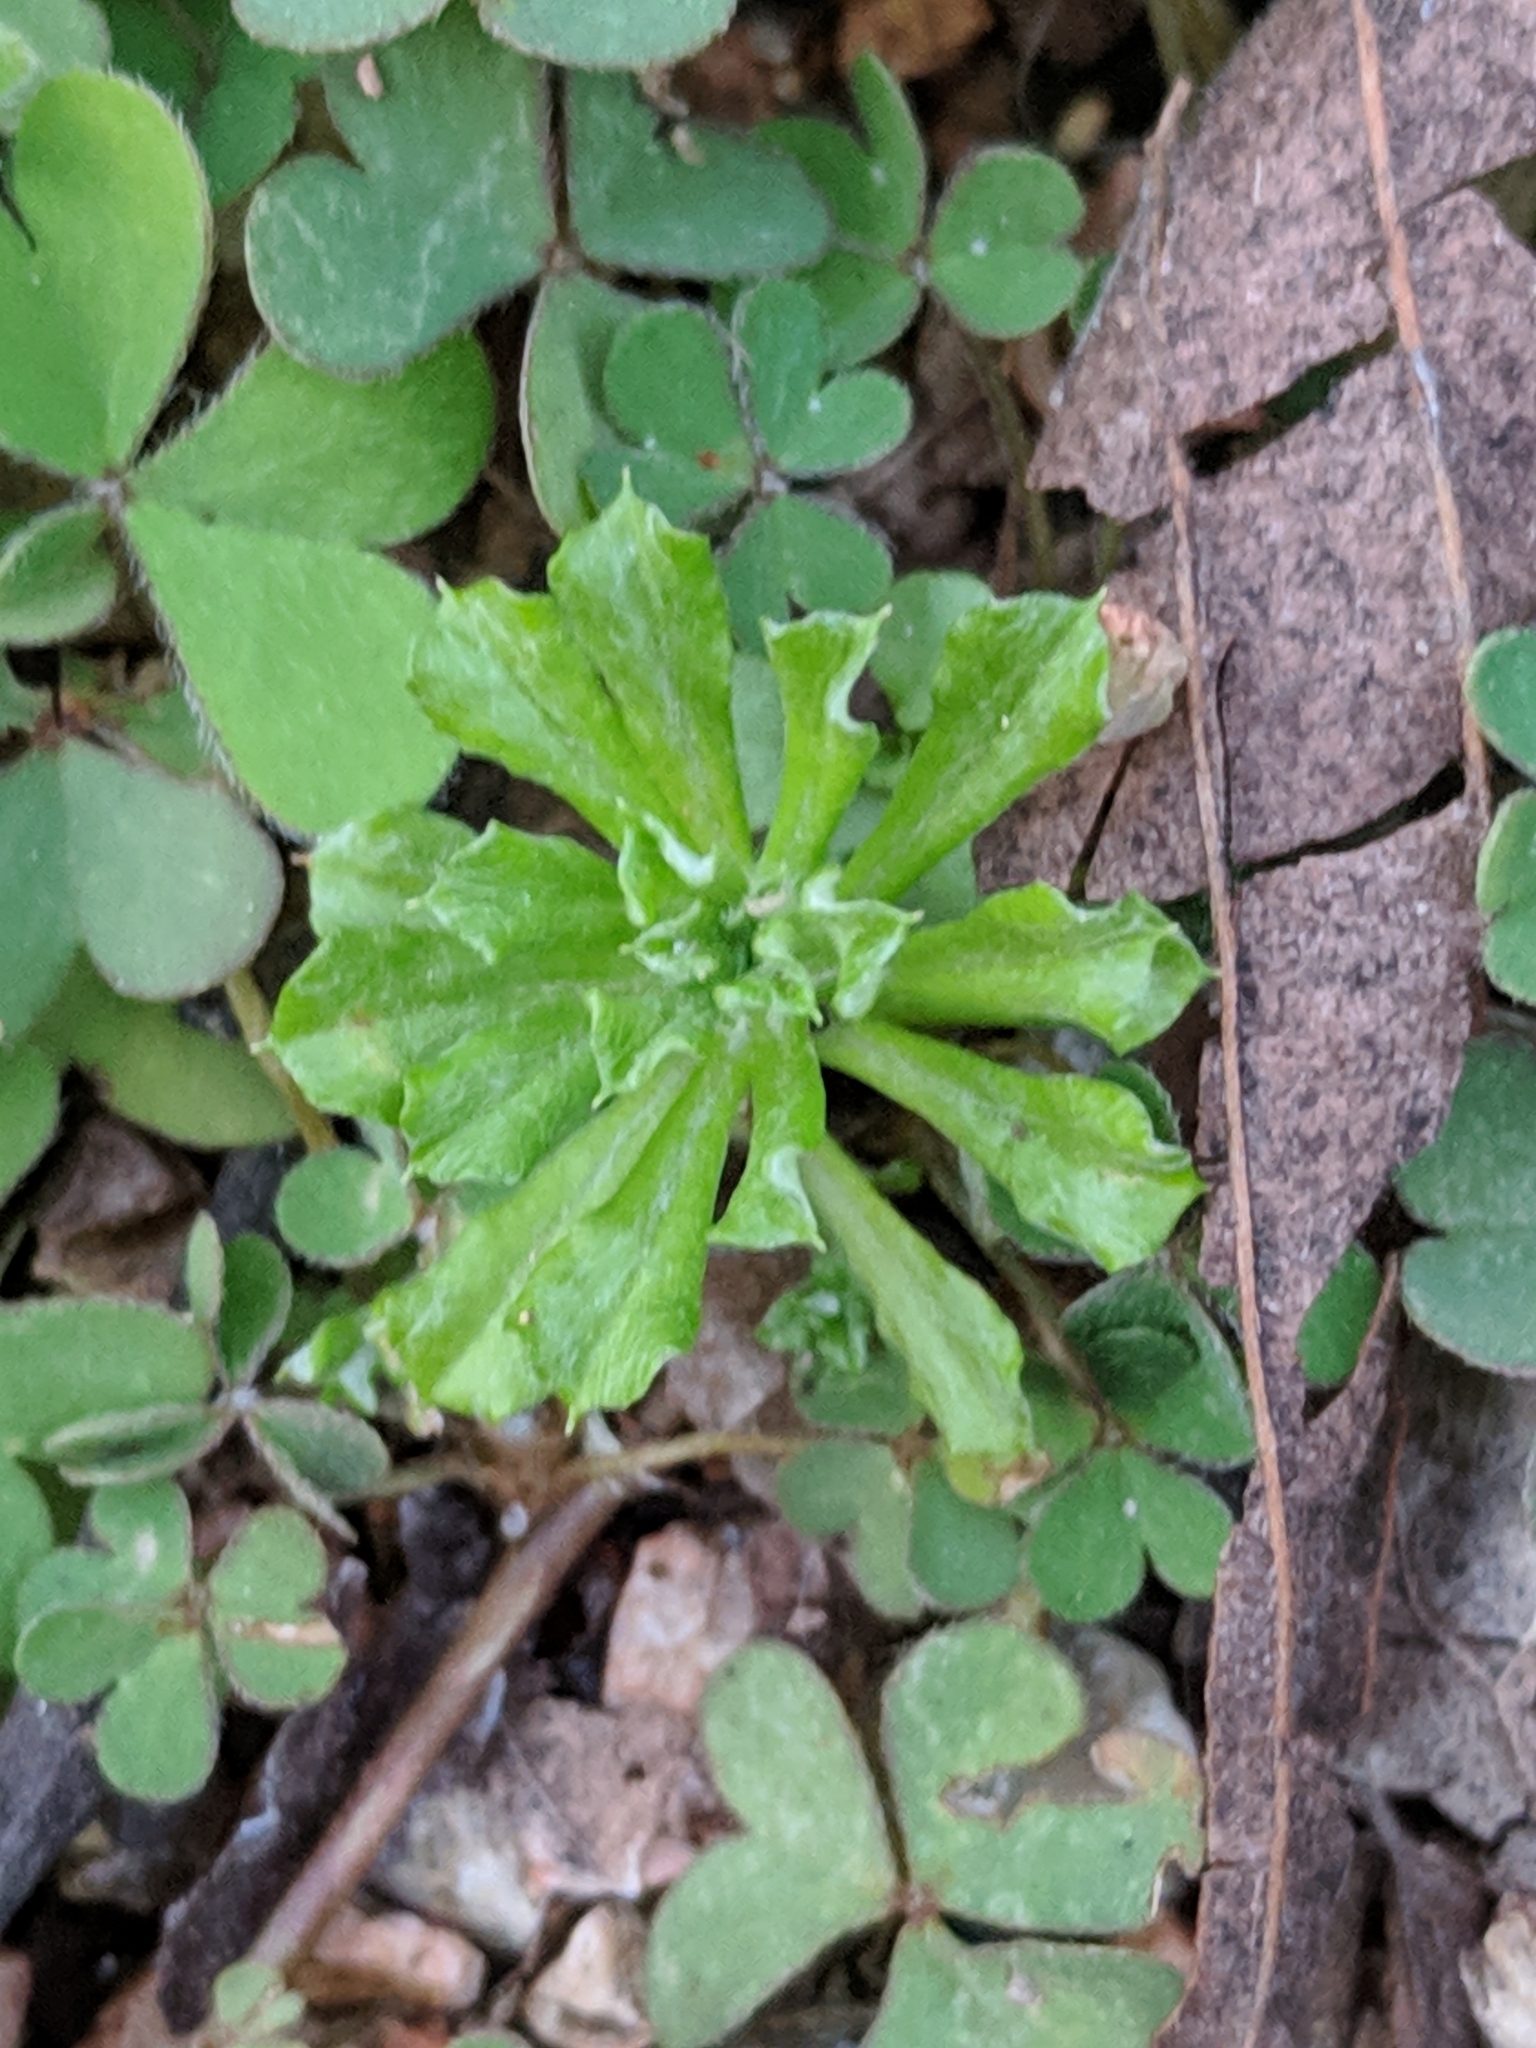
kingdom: Plantae
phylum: Tracheophyta
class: Magnoliopsida
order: Asterales
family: Asteraceae
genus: Facelis
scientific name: Facelis retusa
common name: Annual trampweed
